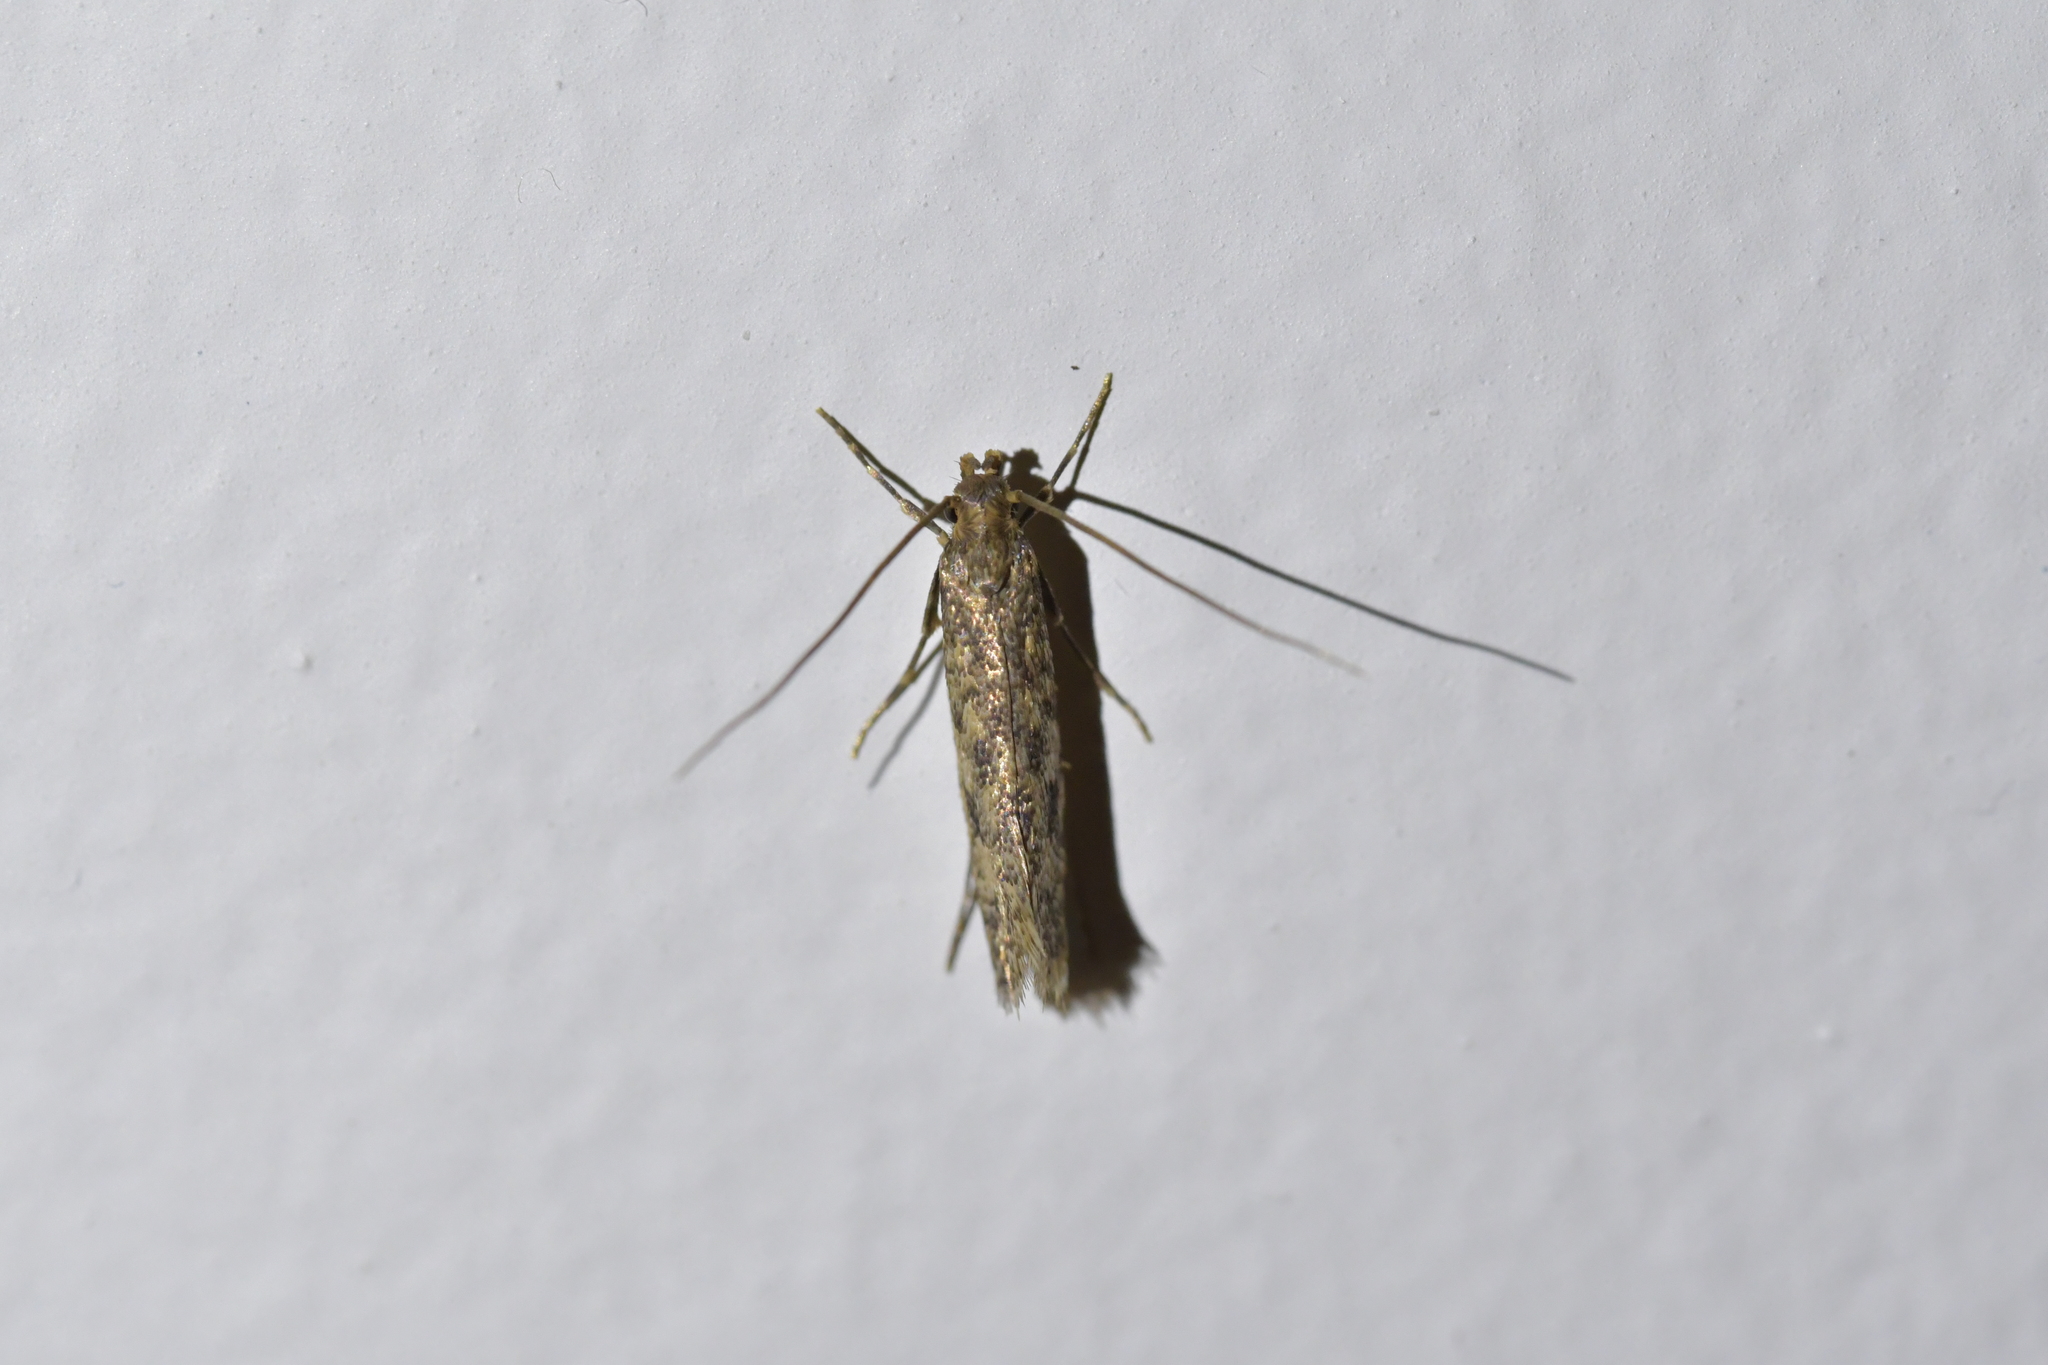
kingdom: Animalia
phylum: Arthropoda
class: Insecta
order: Lepidoptera
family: Tineidae
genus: Lindera
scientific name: Lindera tessellatella
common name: Moth
